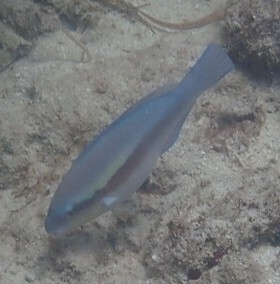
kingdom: Animalia
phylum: Chordata
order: Perciformes
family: Scaridae
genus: Scarus
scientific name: Scarus iseri
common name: Striped parrotfish
